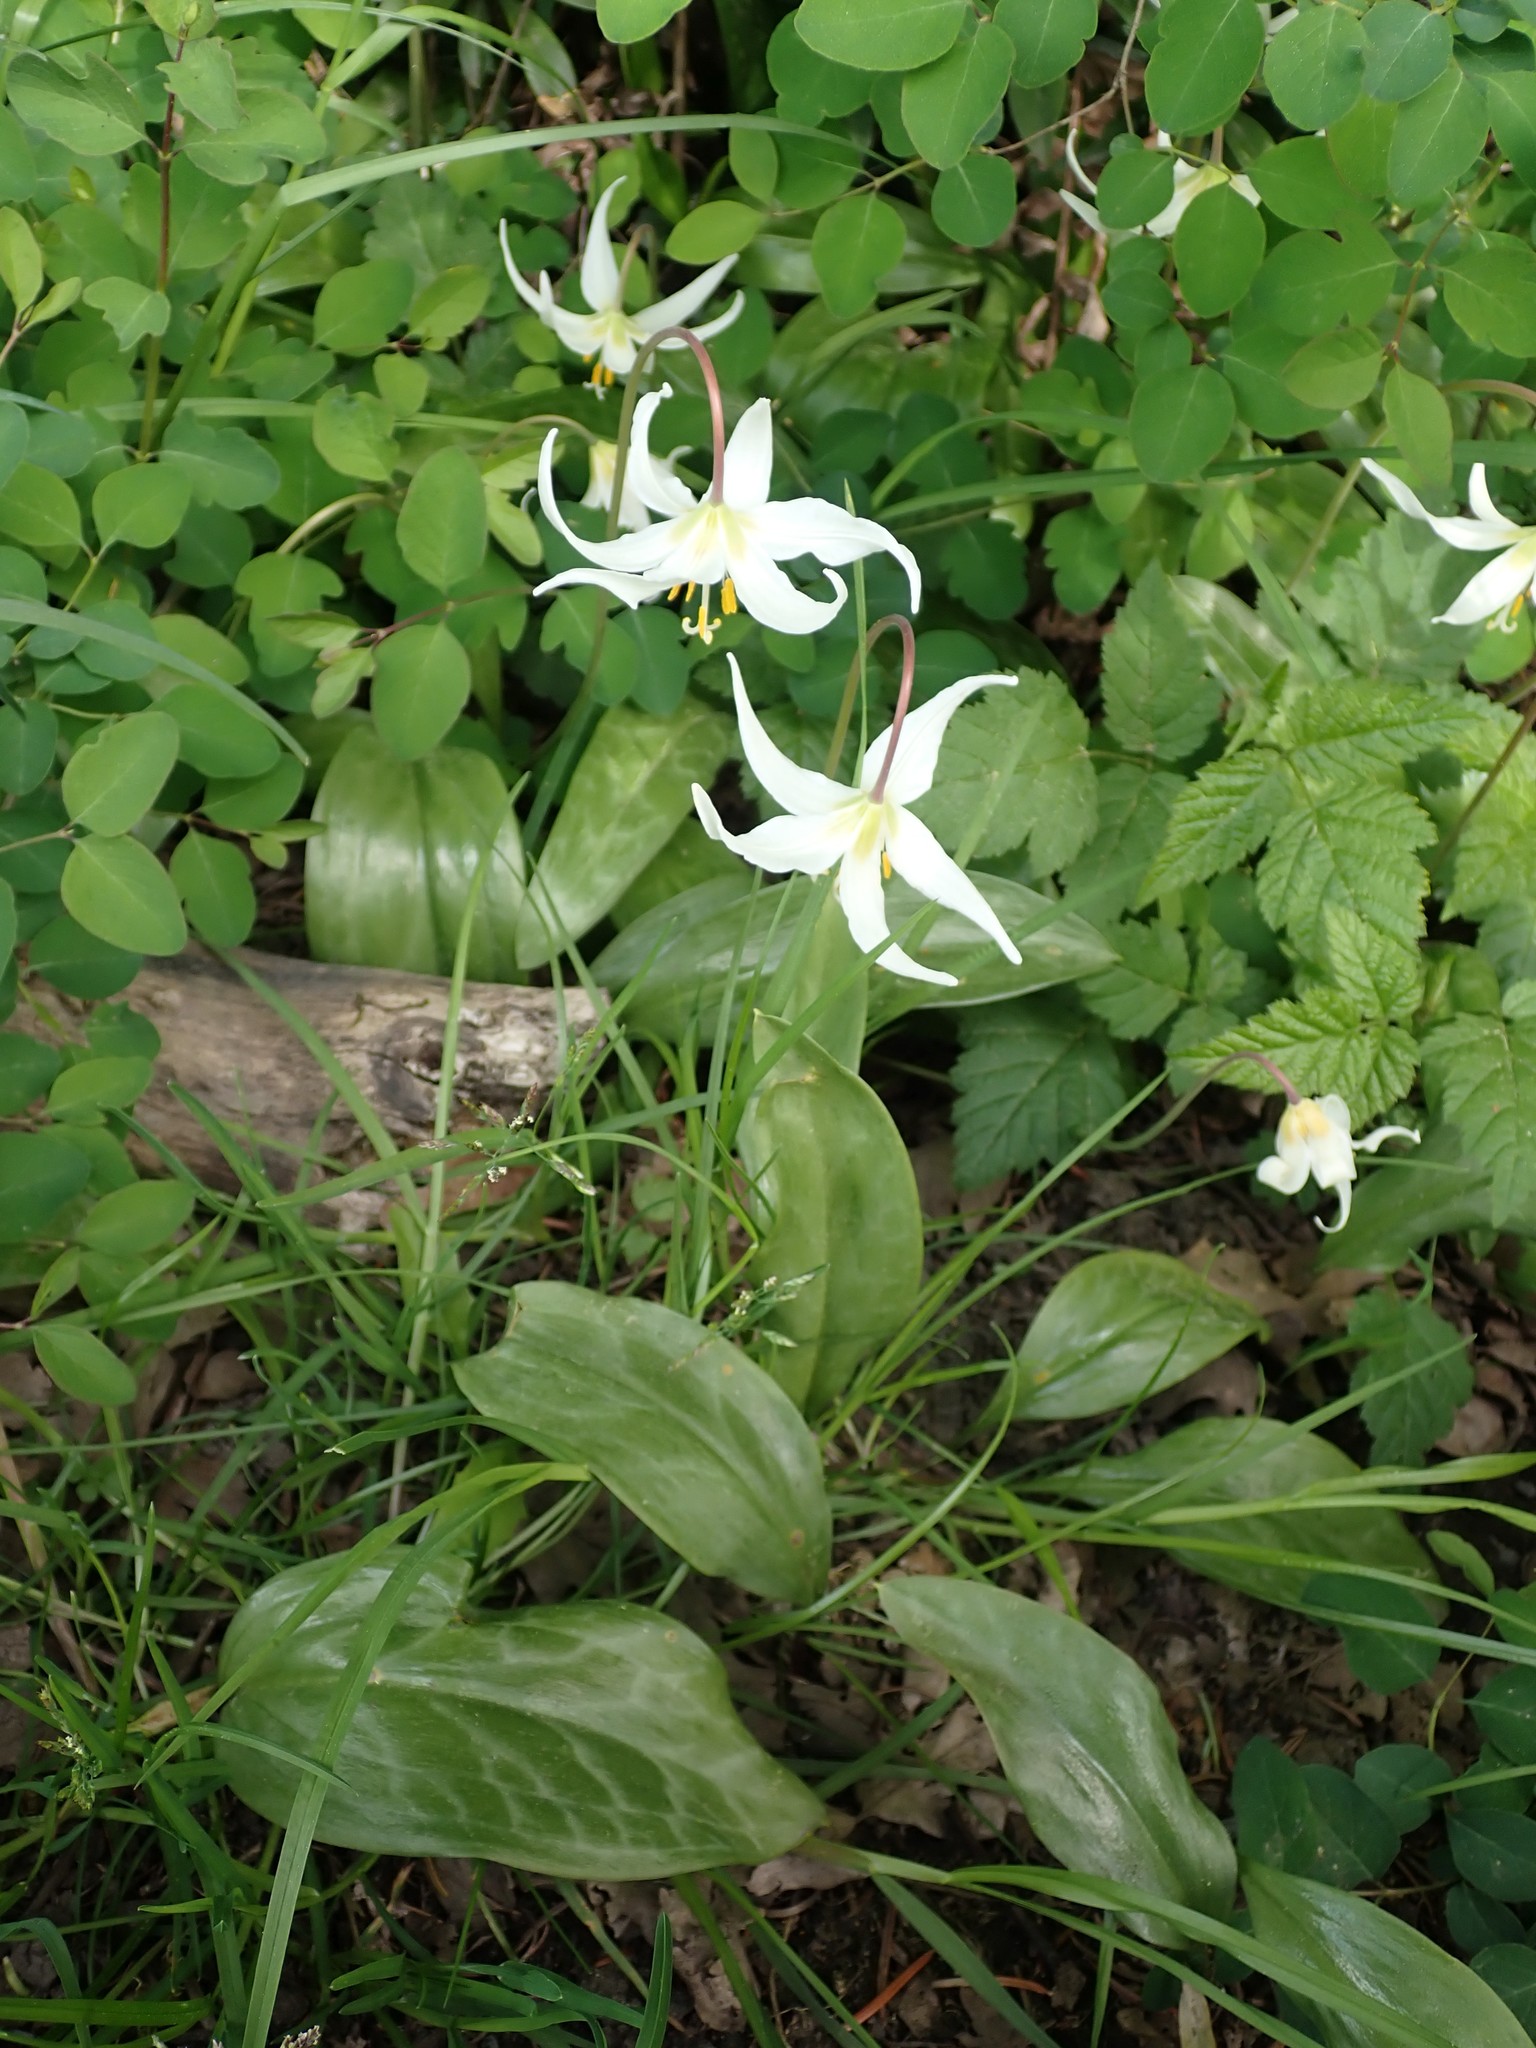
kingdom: Plantae
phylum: Tracheophyta
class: Liliopsida
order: Liliales
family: Liliaceae
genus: Erythronium
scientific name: Erythronium oregonum
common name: Giant adder's-tongue
